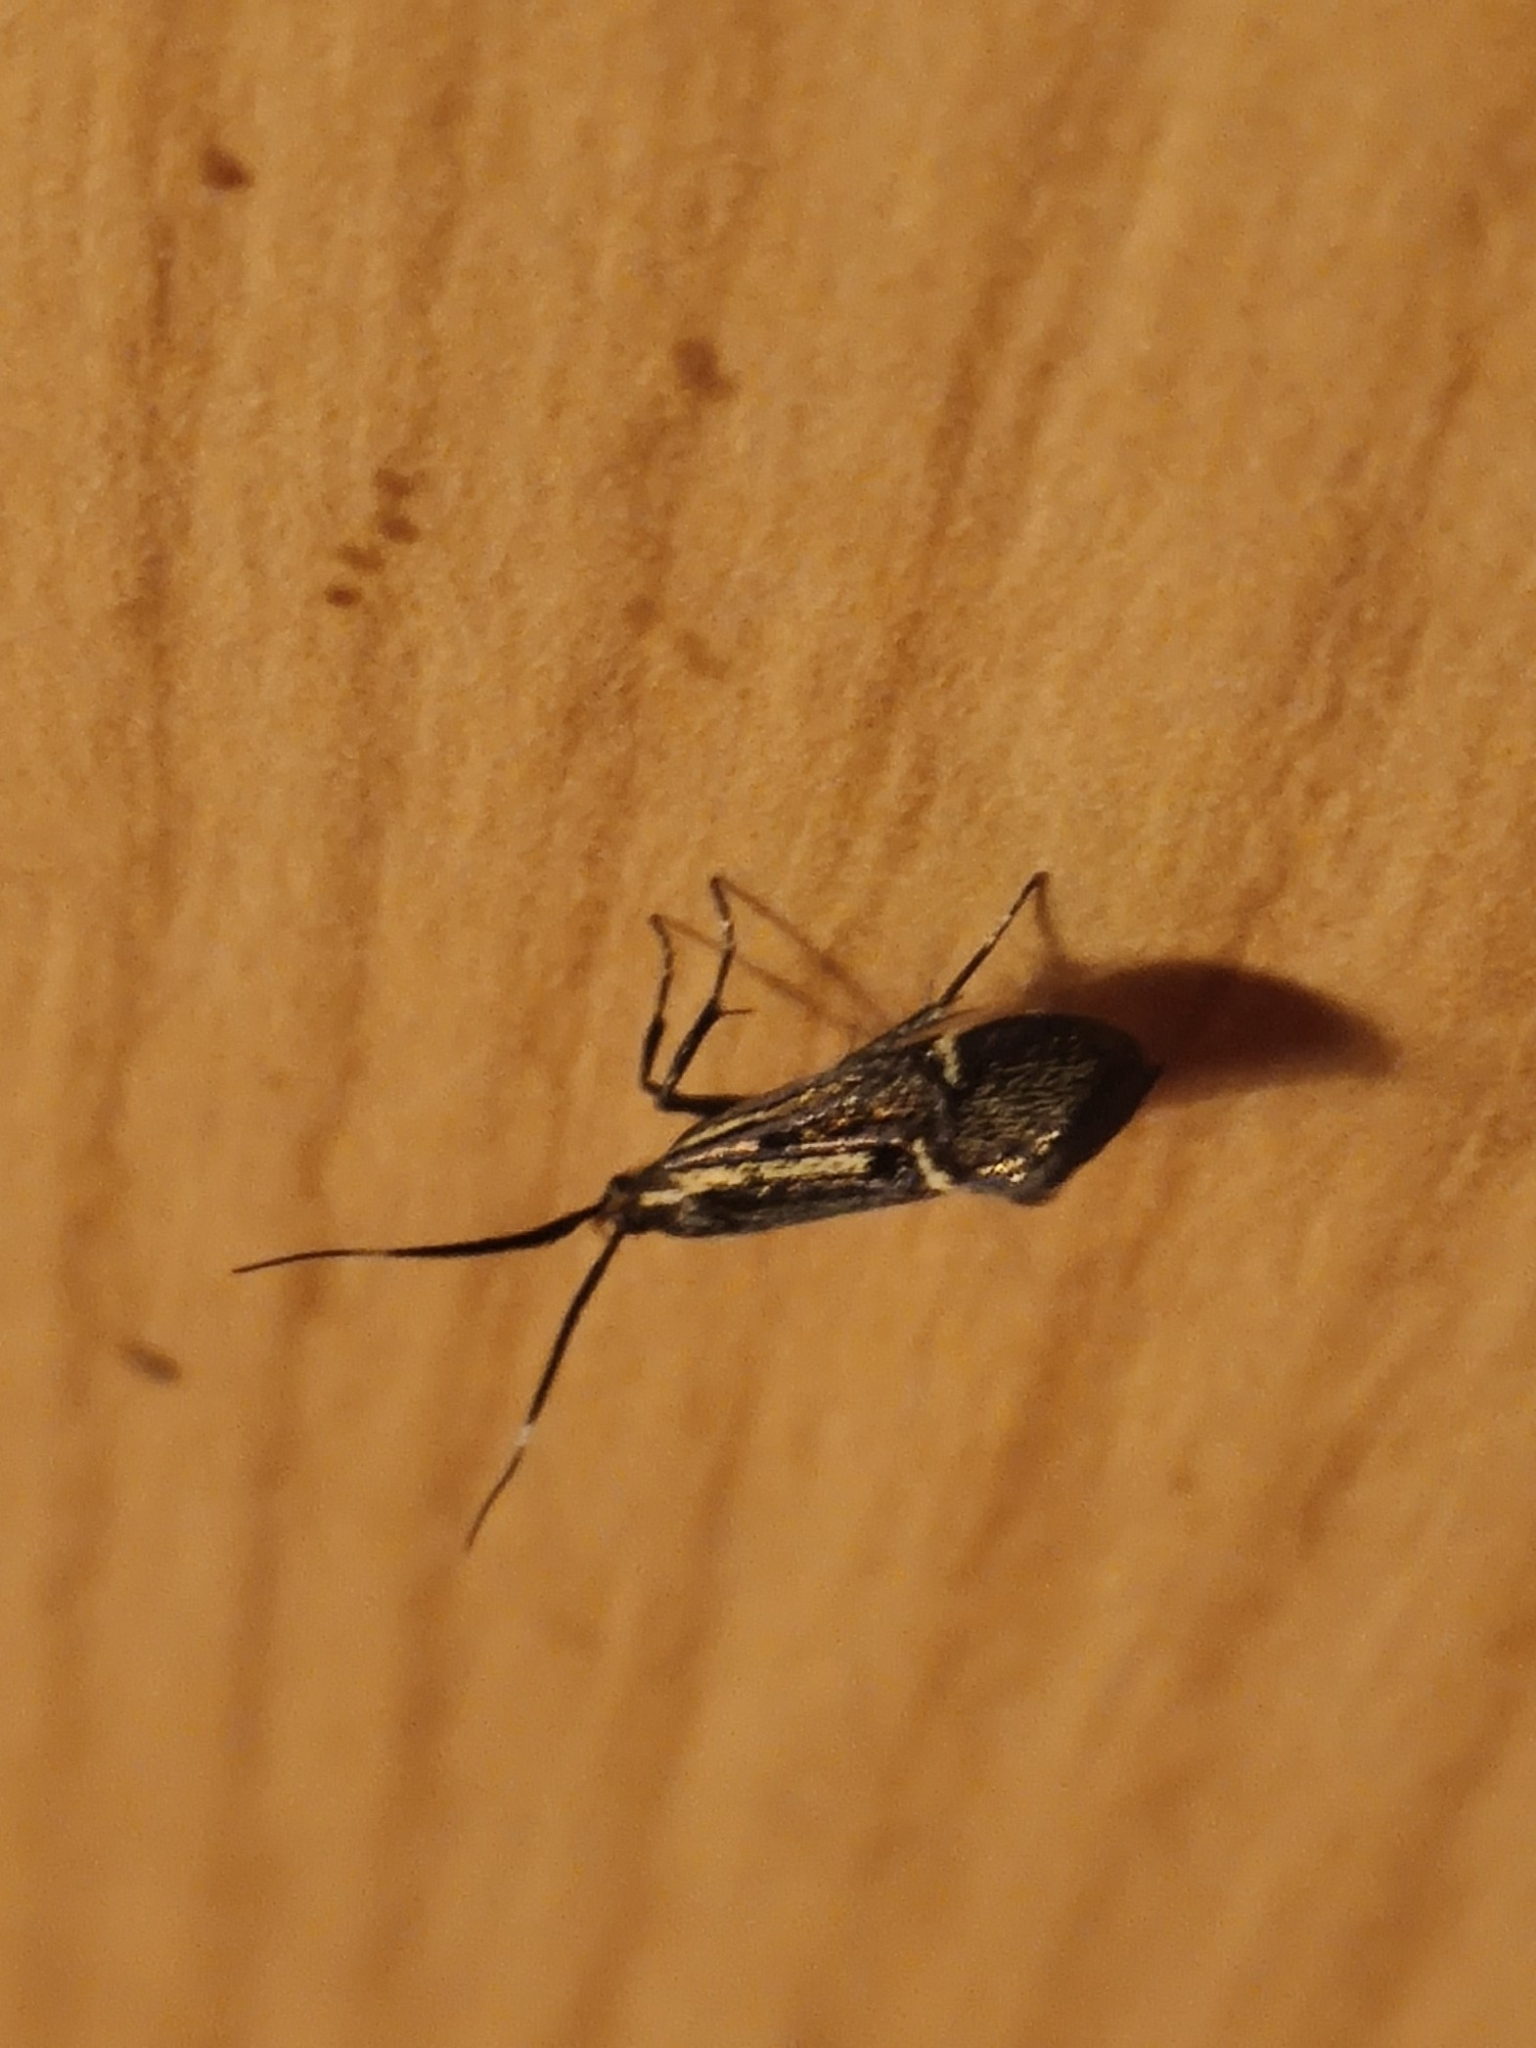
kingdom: Animalia
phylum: Arthropoda
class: Insecta
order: Lepidoptera
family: Oecophoridae
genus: Dafa
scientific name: Dafa Esperia sulphurella
